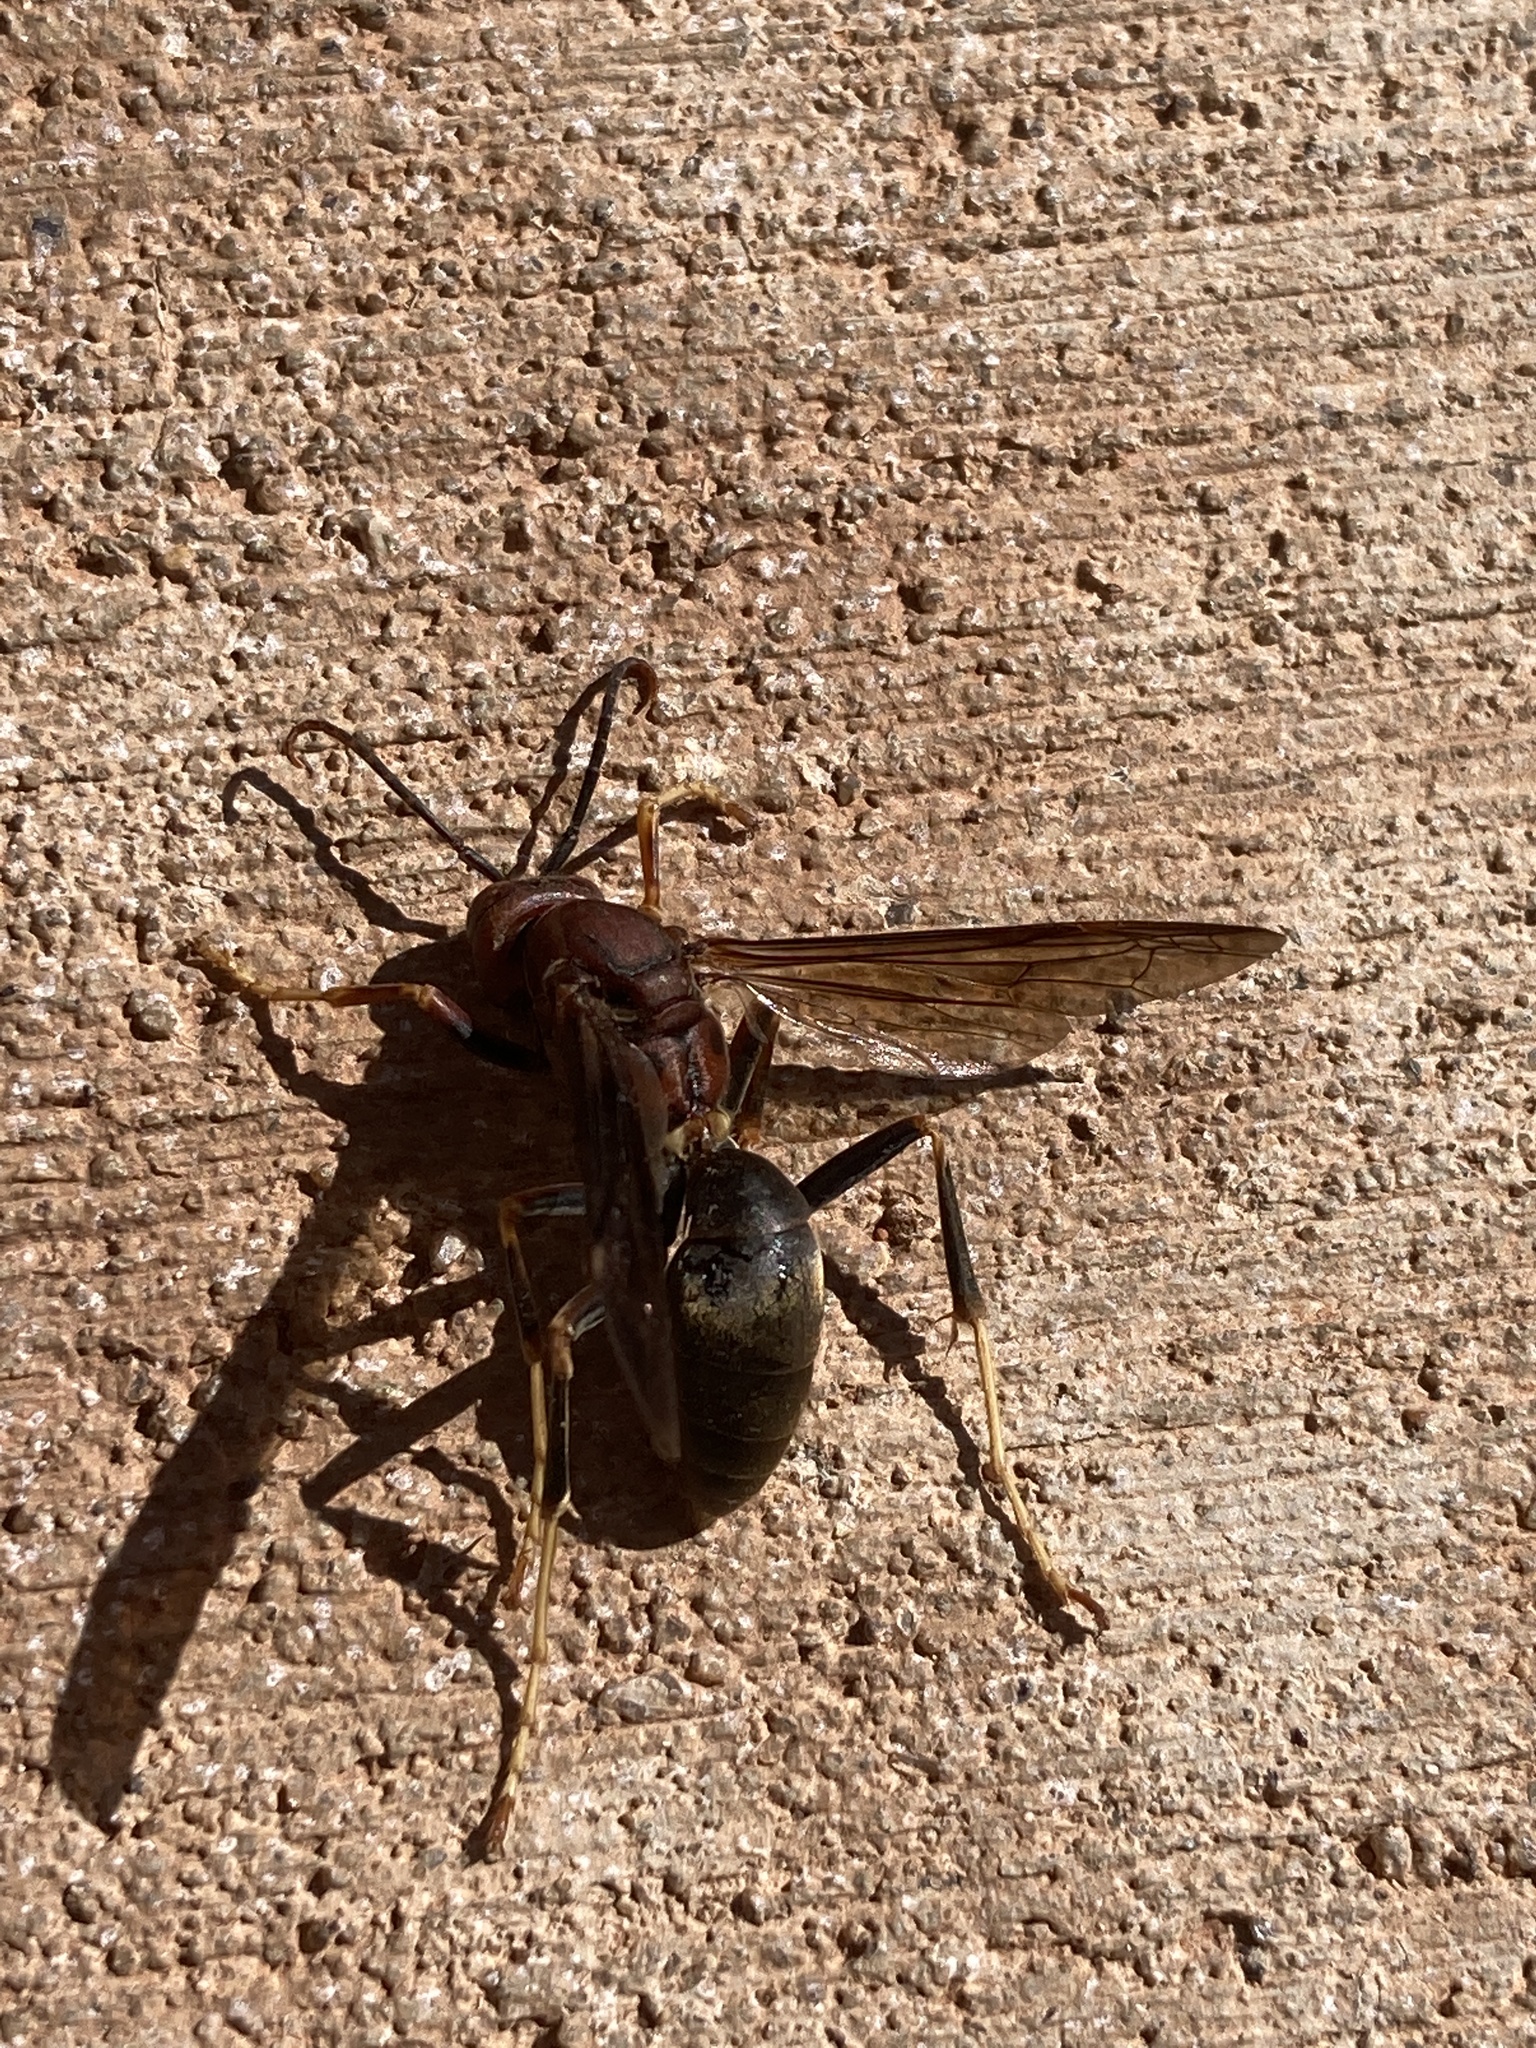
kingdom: Animalia
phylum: Arthropoda
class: Insecta
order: Hymenoptera
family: Eumenidae
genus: Polistes
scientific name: Polistes metricus
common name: Metric paper wasp
